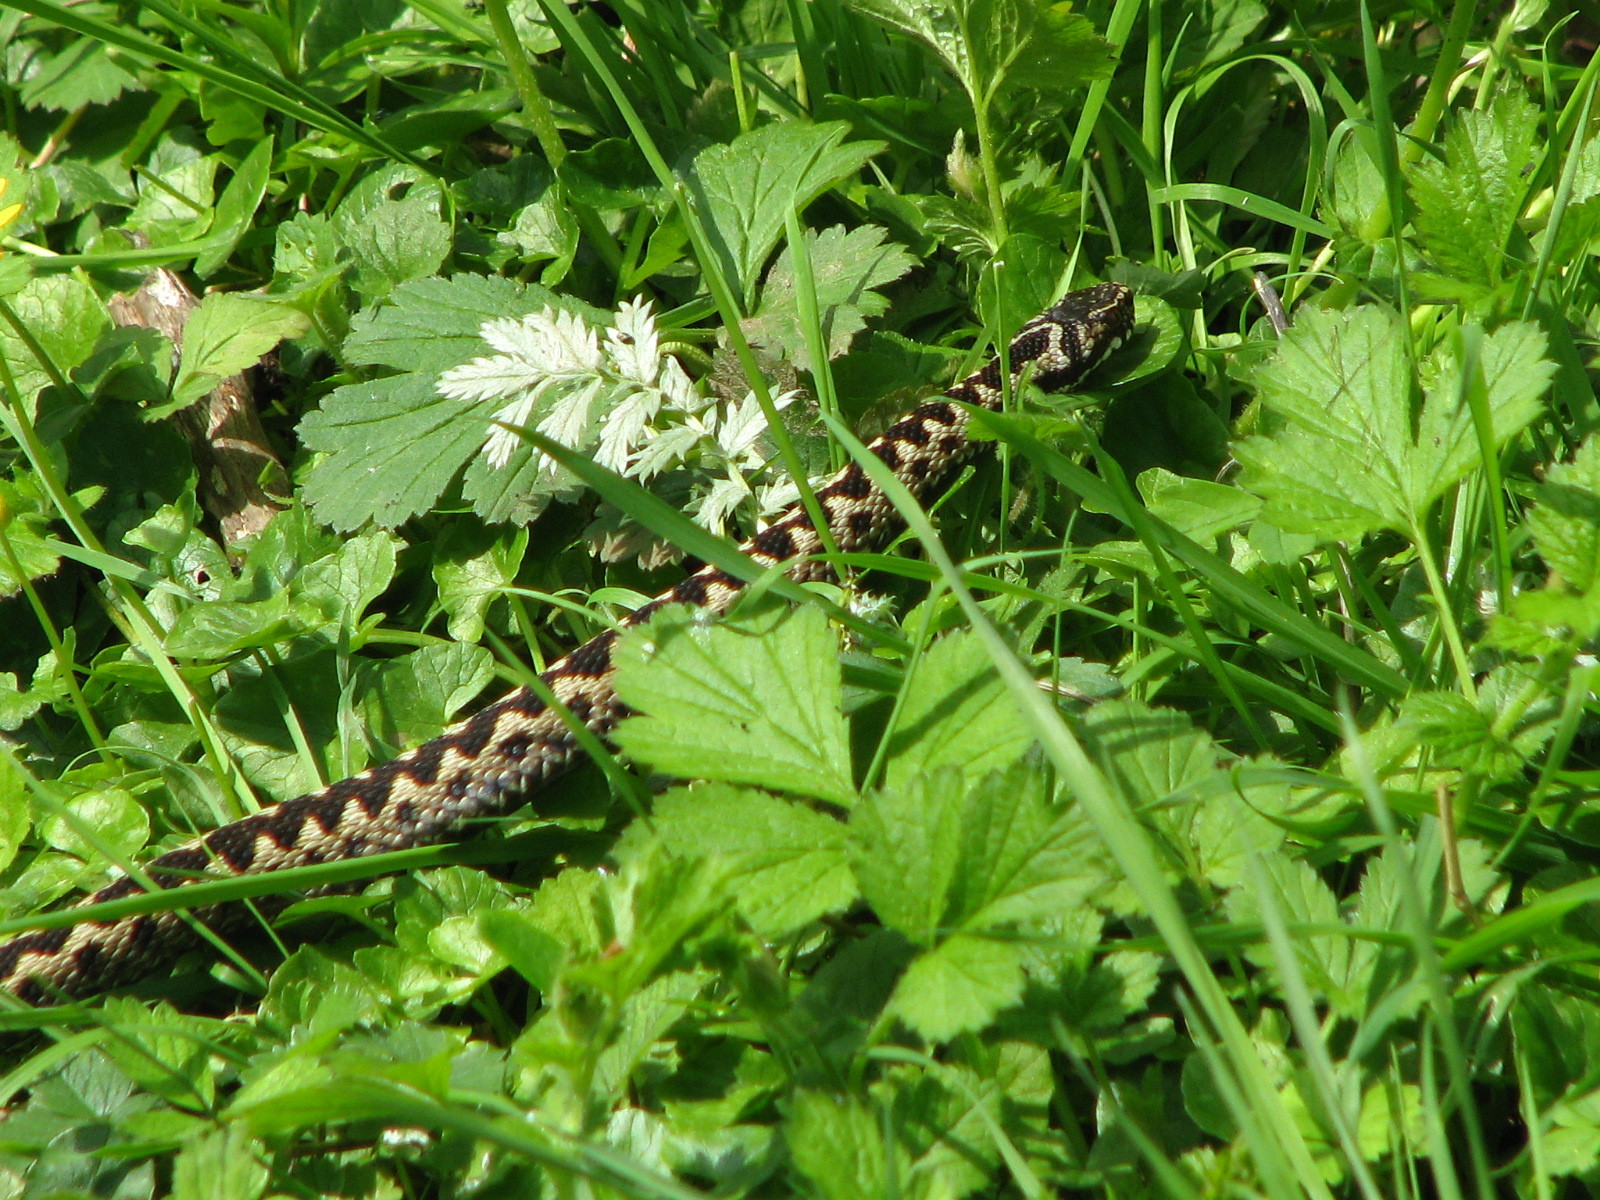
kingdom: Animalia
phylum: Chordata
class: Squamata
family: Viperidae
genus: Vipera
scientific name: Vipera berus
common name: Adder
